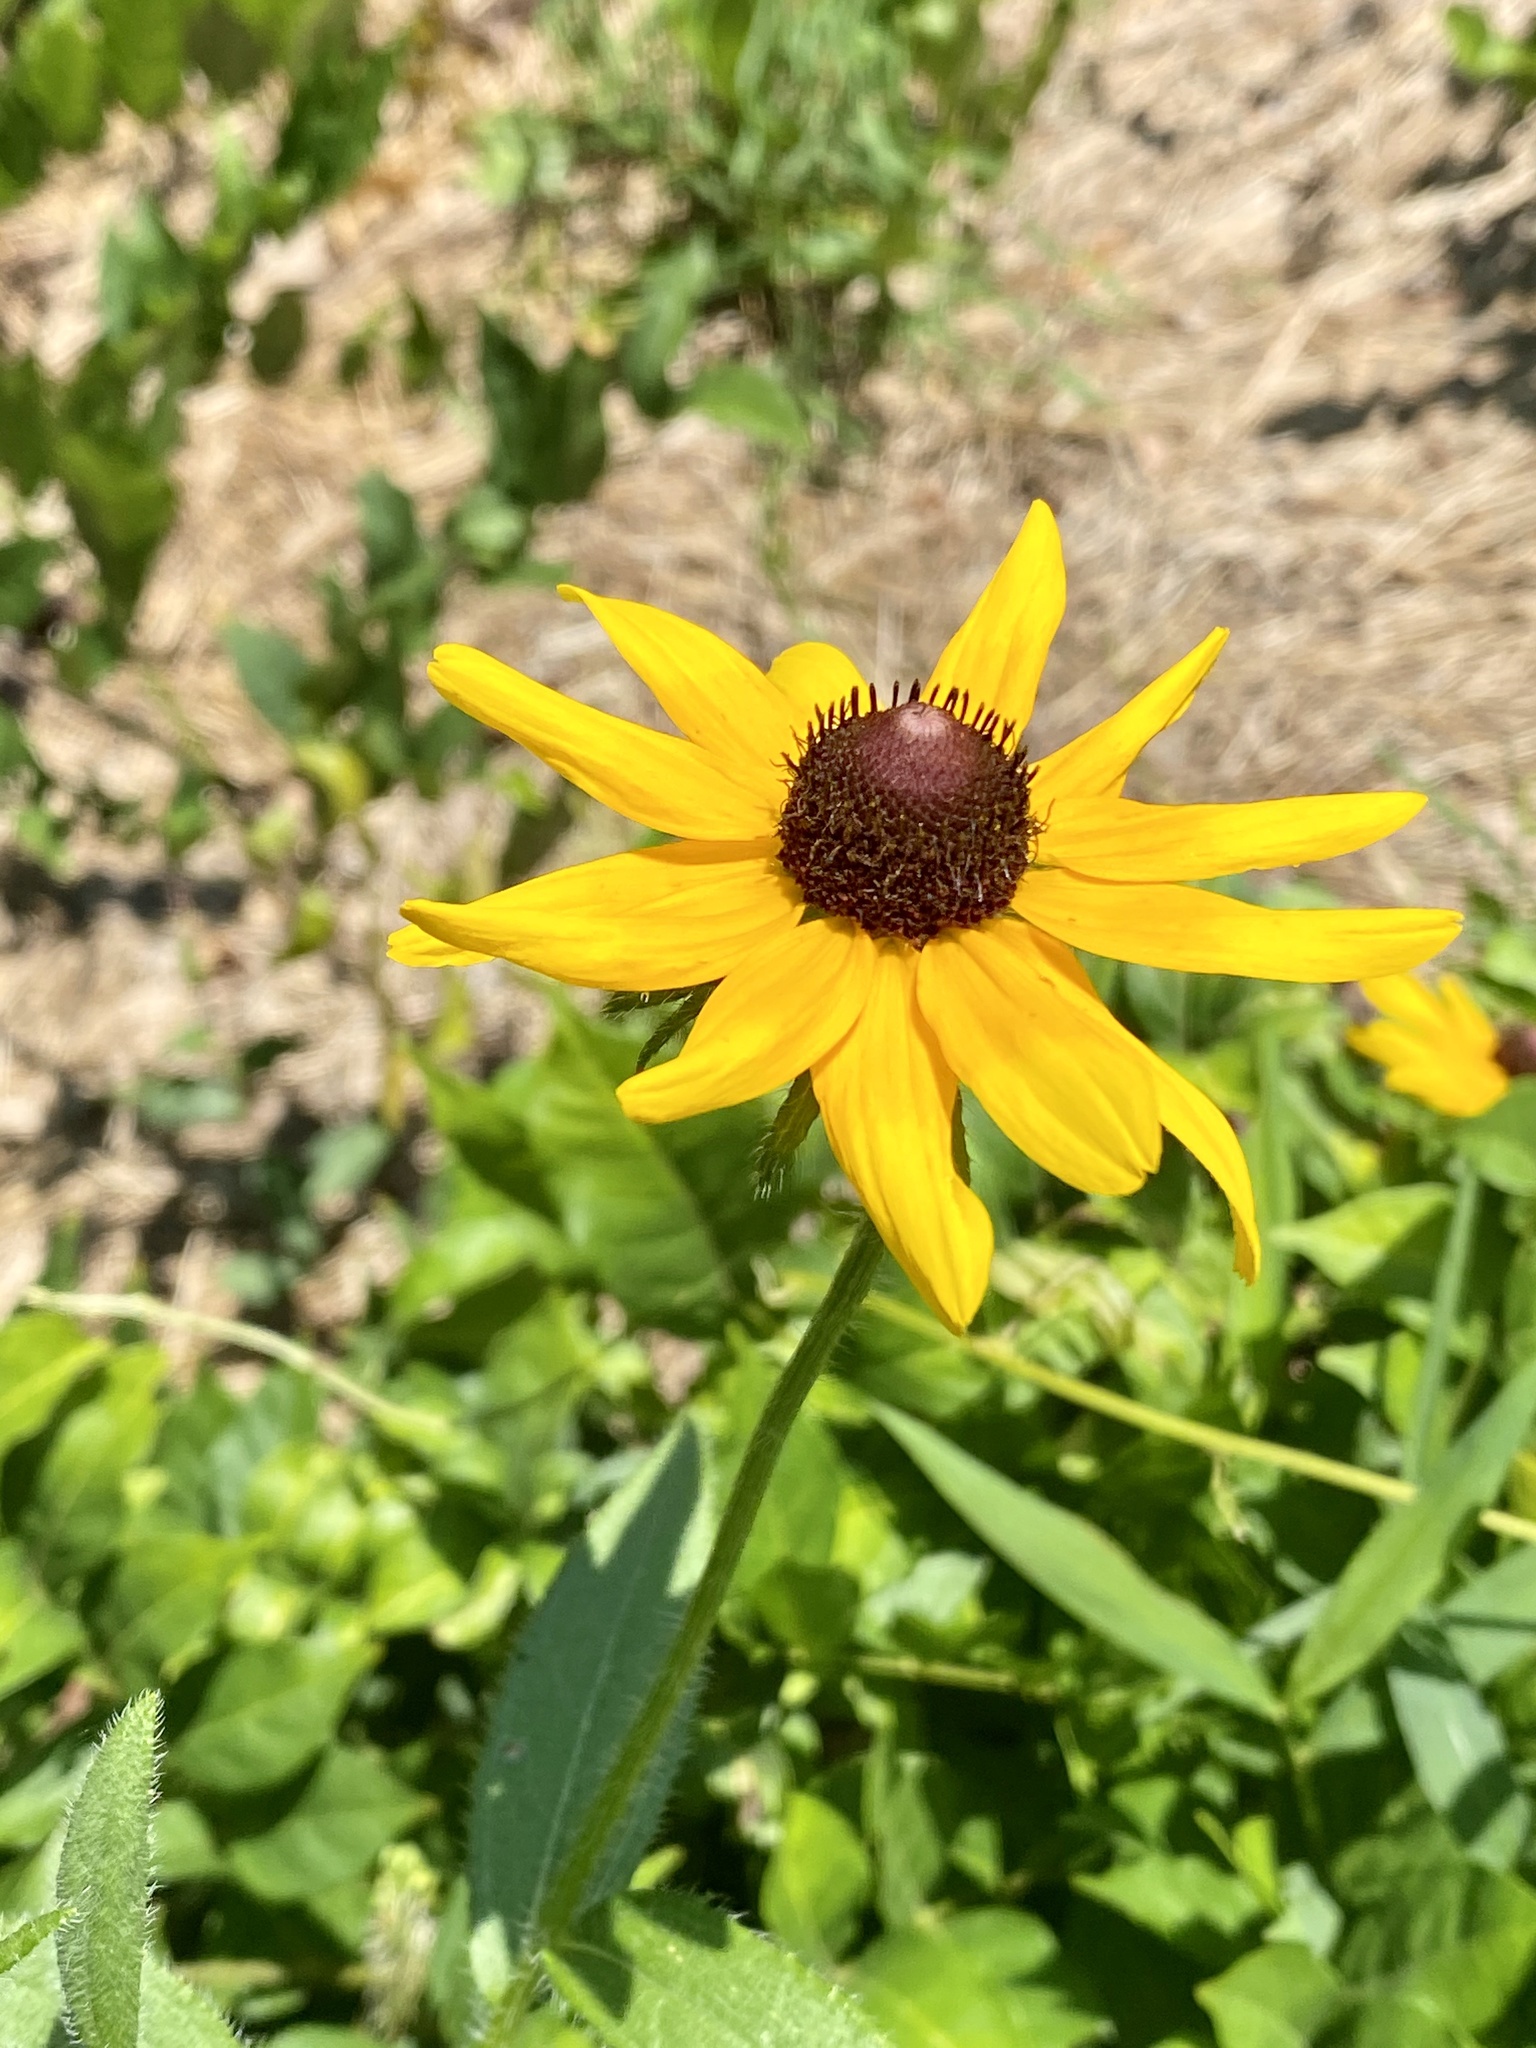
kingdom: Plantae
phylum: Tracheophyta
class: Magnoliopsida
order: Asterales
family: Asteraceae
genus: Rudbeckia
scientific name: Rudbeckia hirta
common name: Black-eyed-susan
